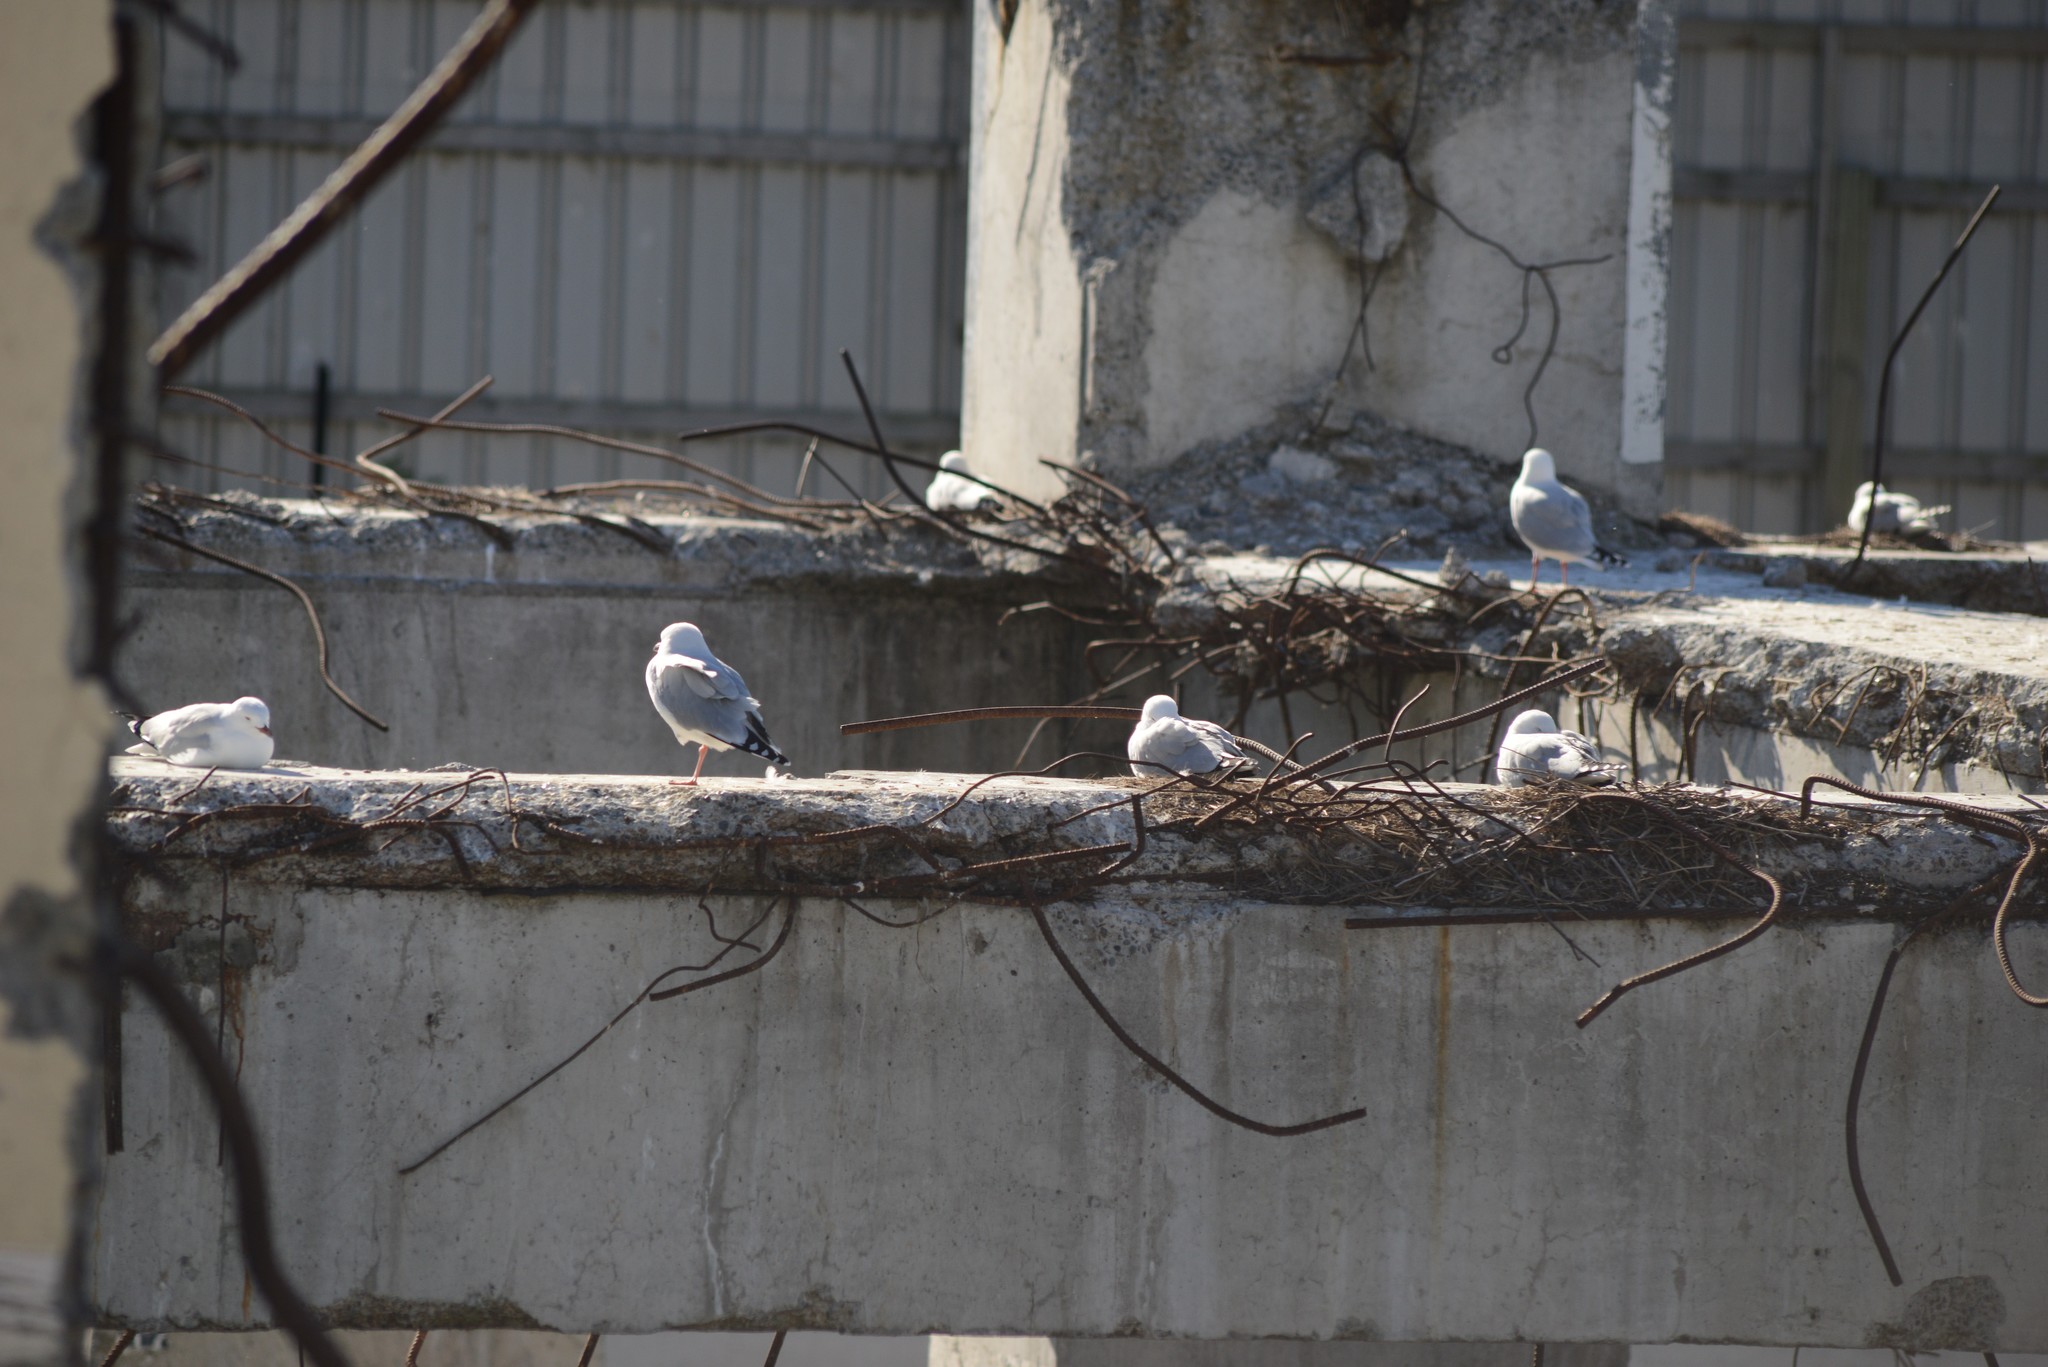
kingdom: Animalia
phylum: Chordata
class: Aves
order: Charadriiformes
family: Laridae
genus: Chroicocephalus
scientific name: Chroicocephalus novaehollandiae
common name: Silver gull
